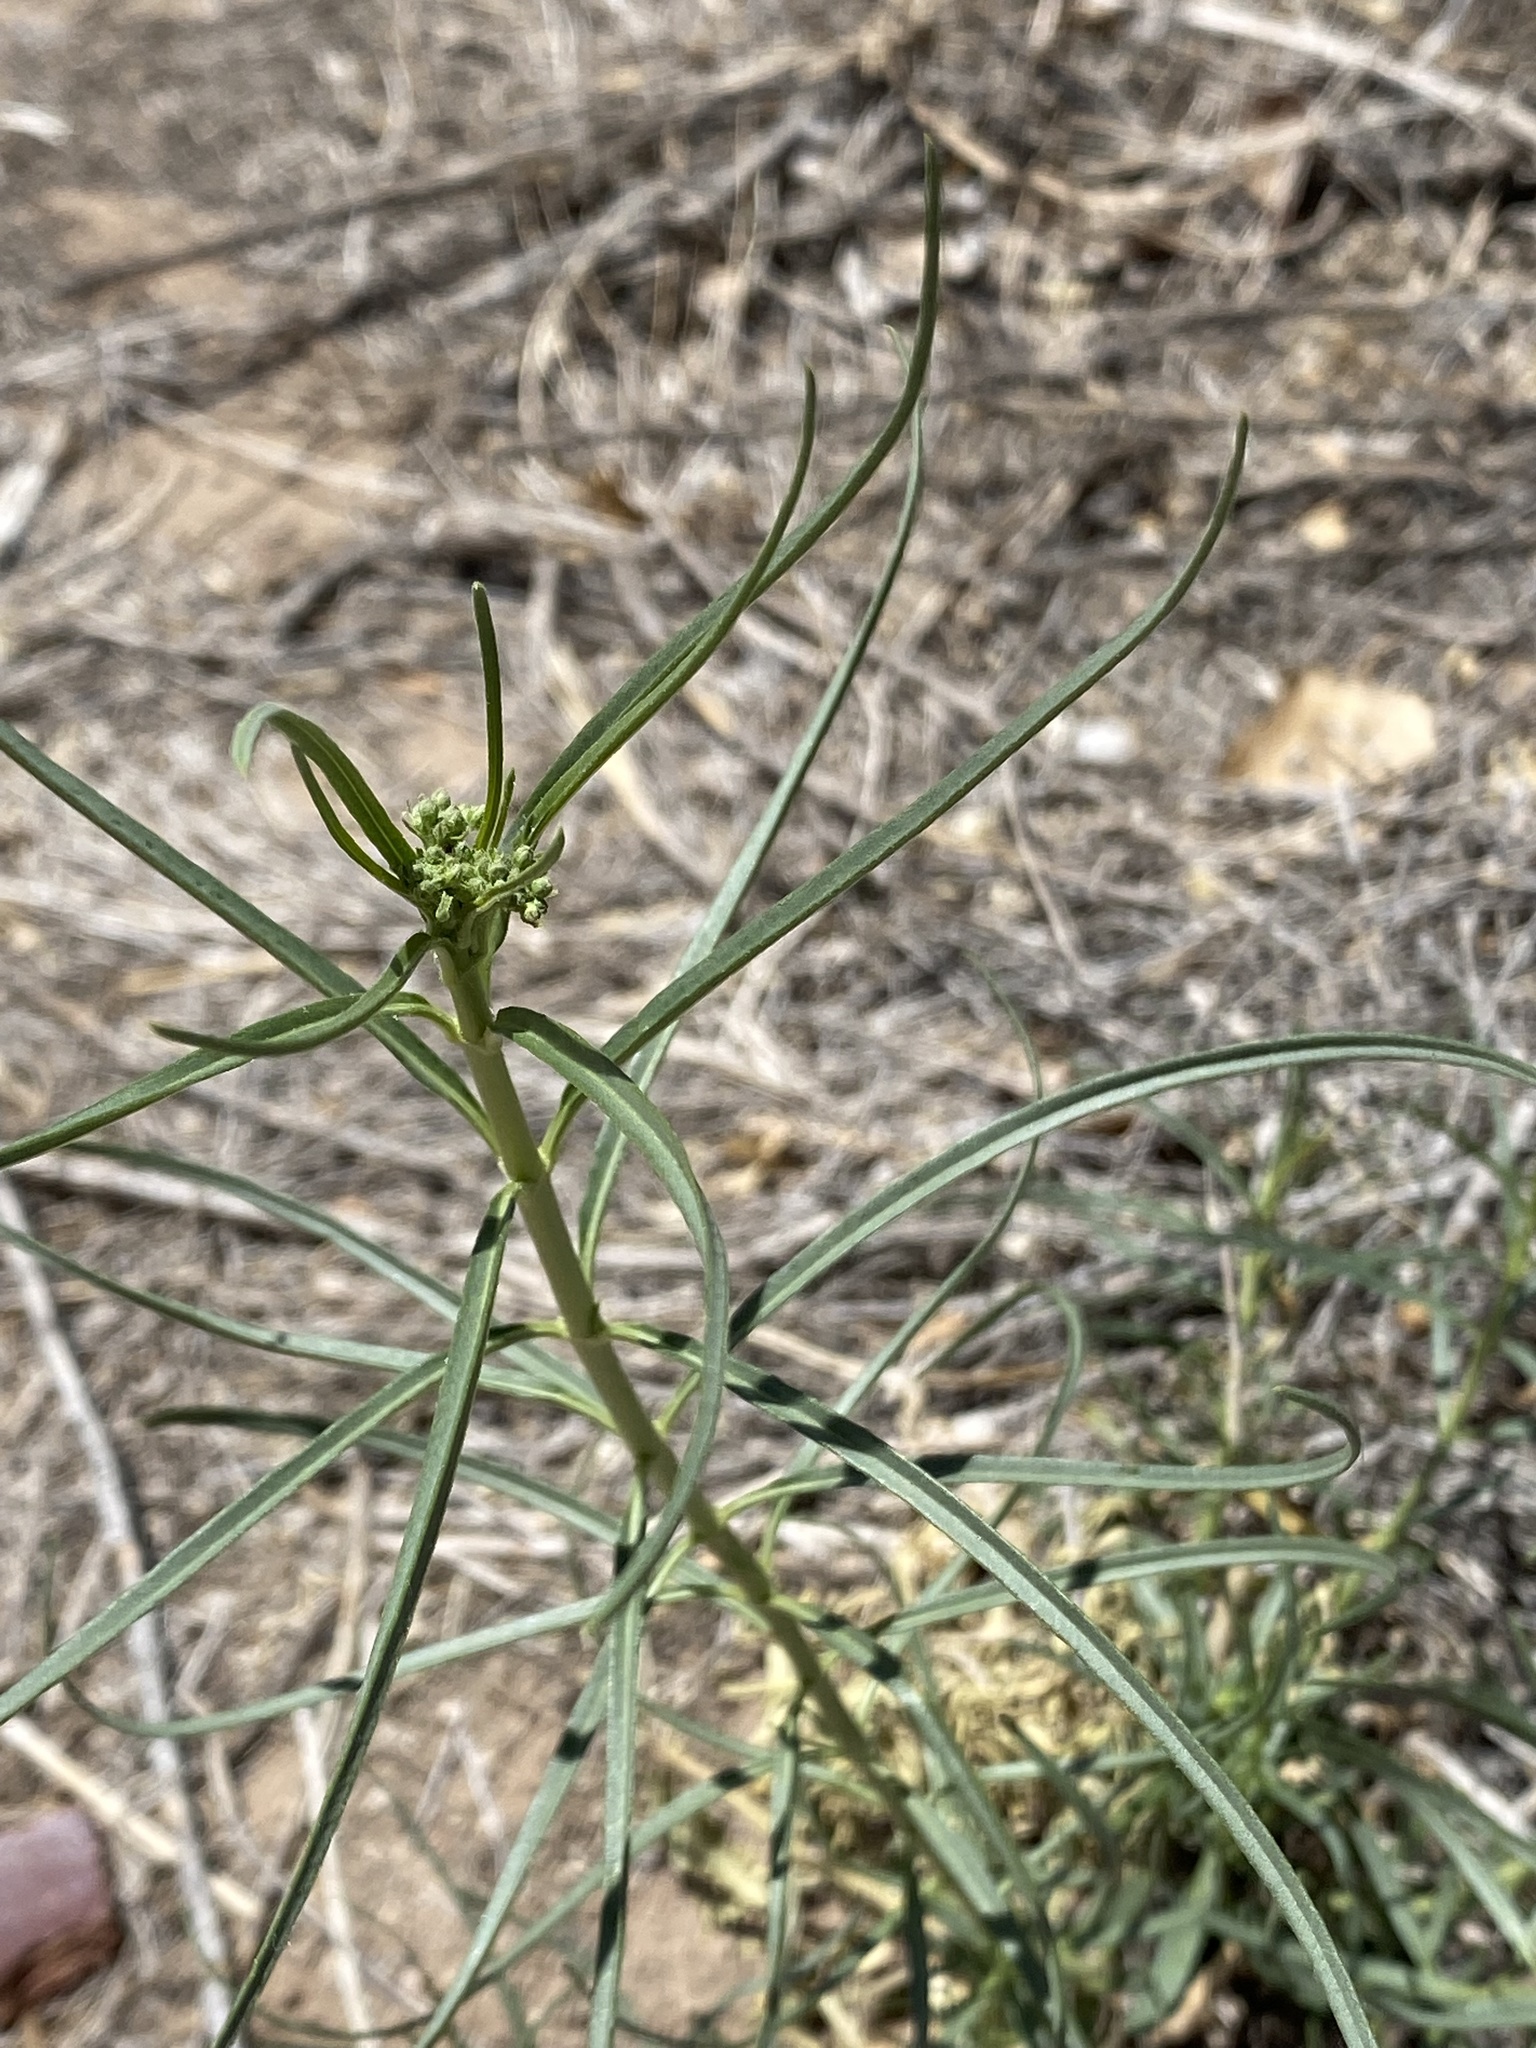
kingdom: Plantae
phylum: Tracheophyta
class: Magnoliopsida
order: Gentianales
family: Apocynaceae
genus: Asclepias
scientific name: Asclepias subverticillata
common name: Horsetail milkweed
